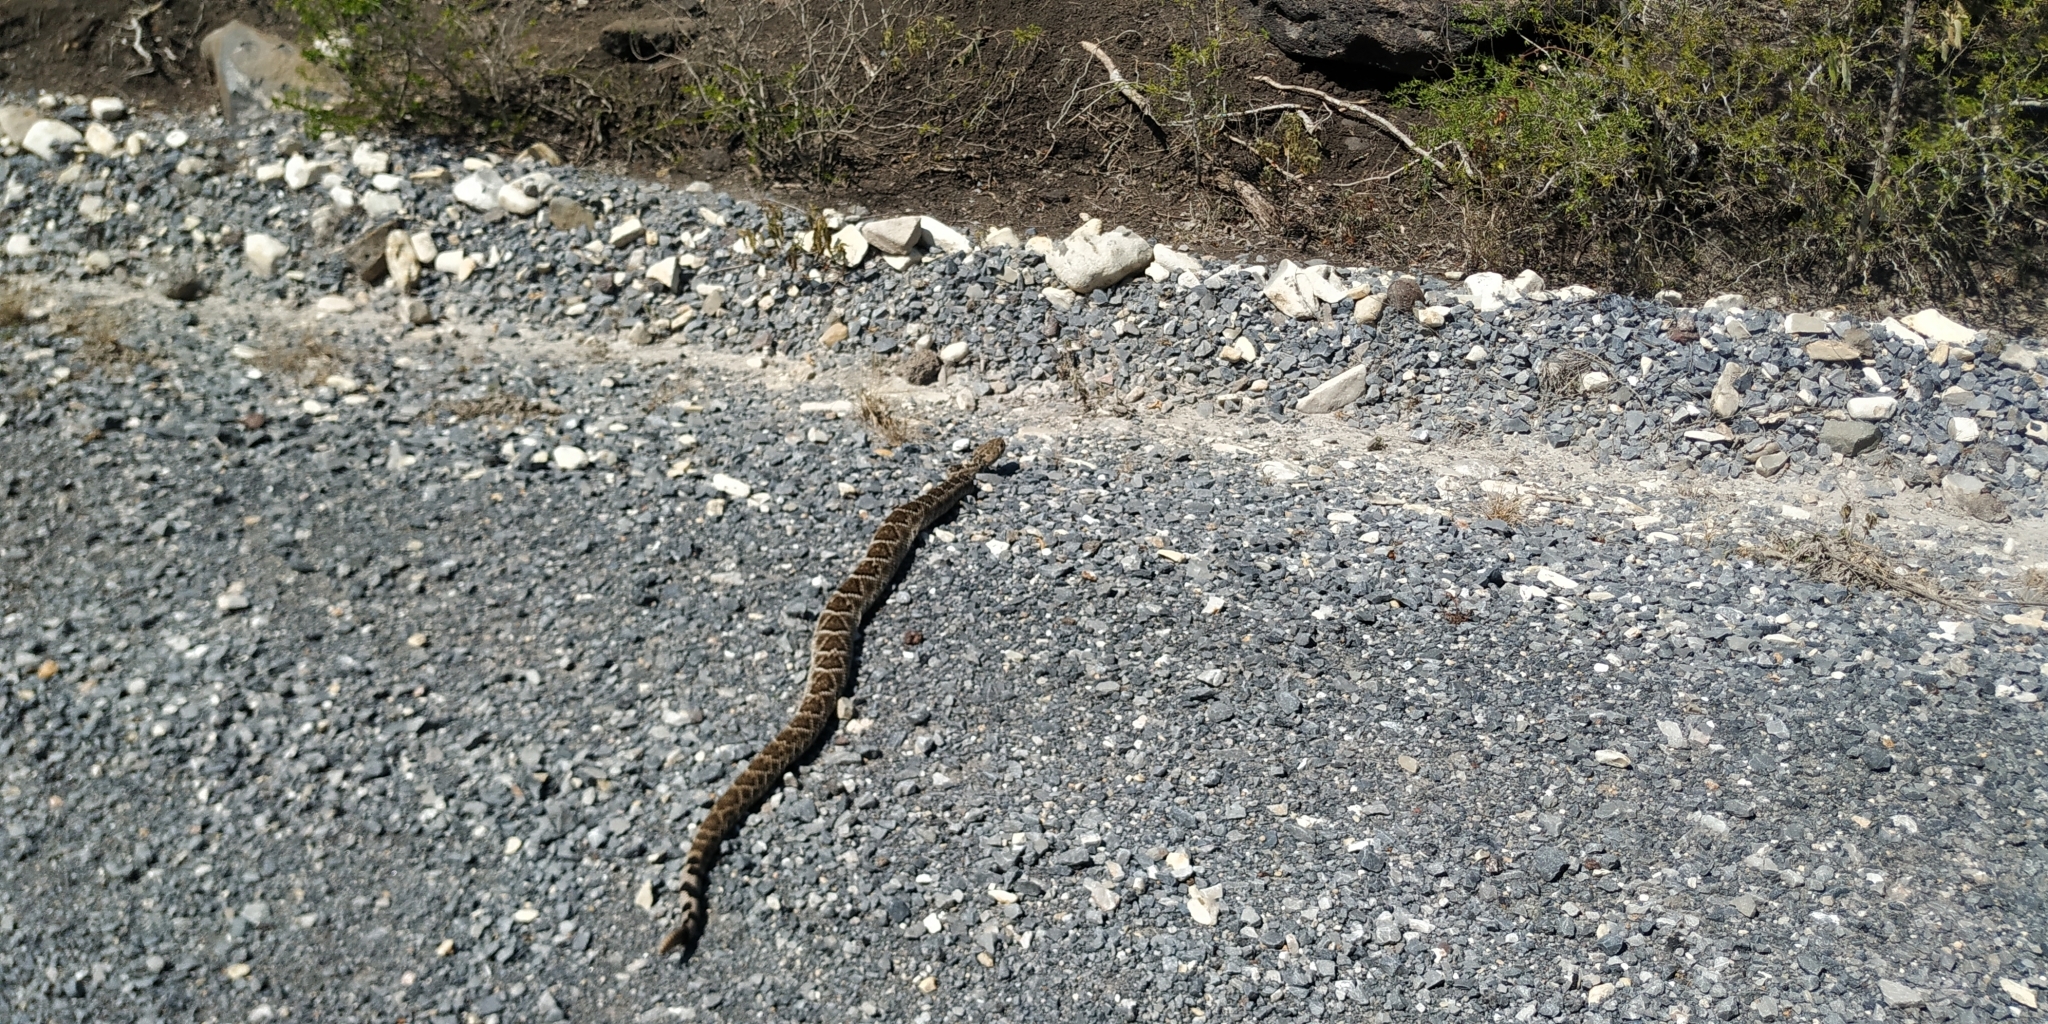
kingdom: Animalia
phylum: Chordata
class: Squamata
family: Viperidae
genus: Crotalus
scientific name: Crotalus atrox
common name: Western diamond-backed rattlesnake
